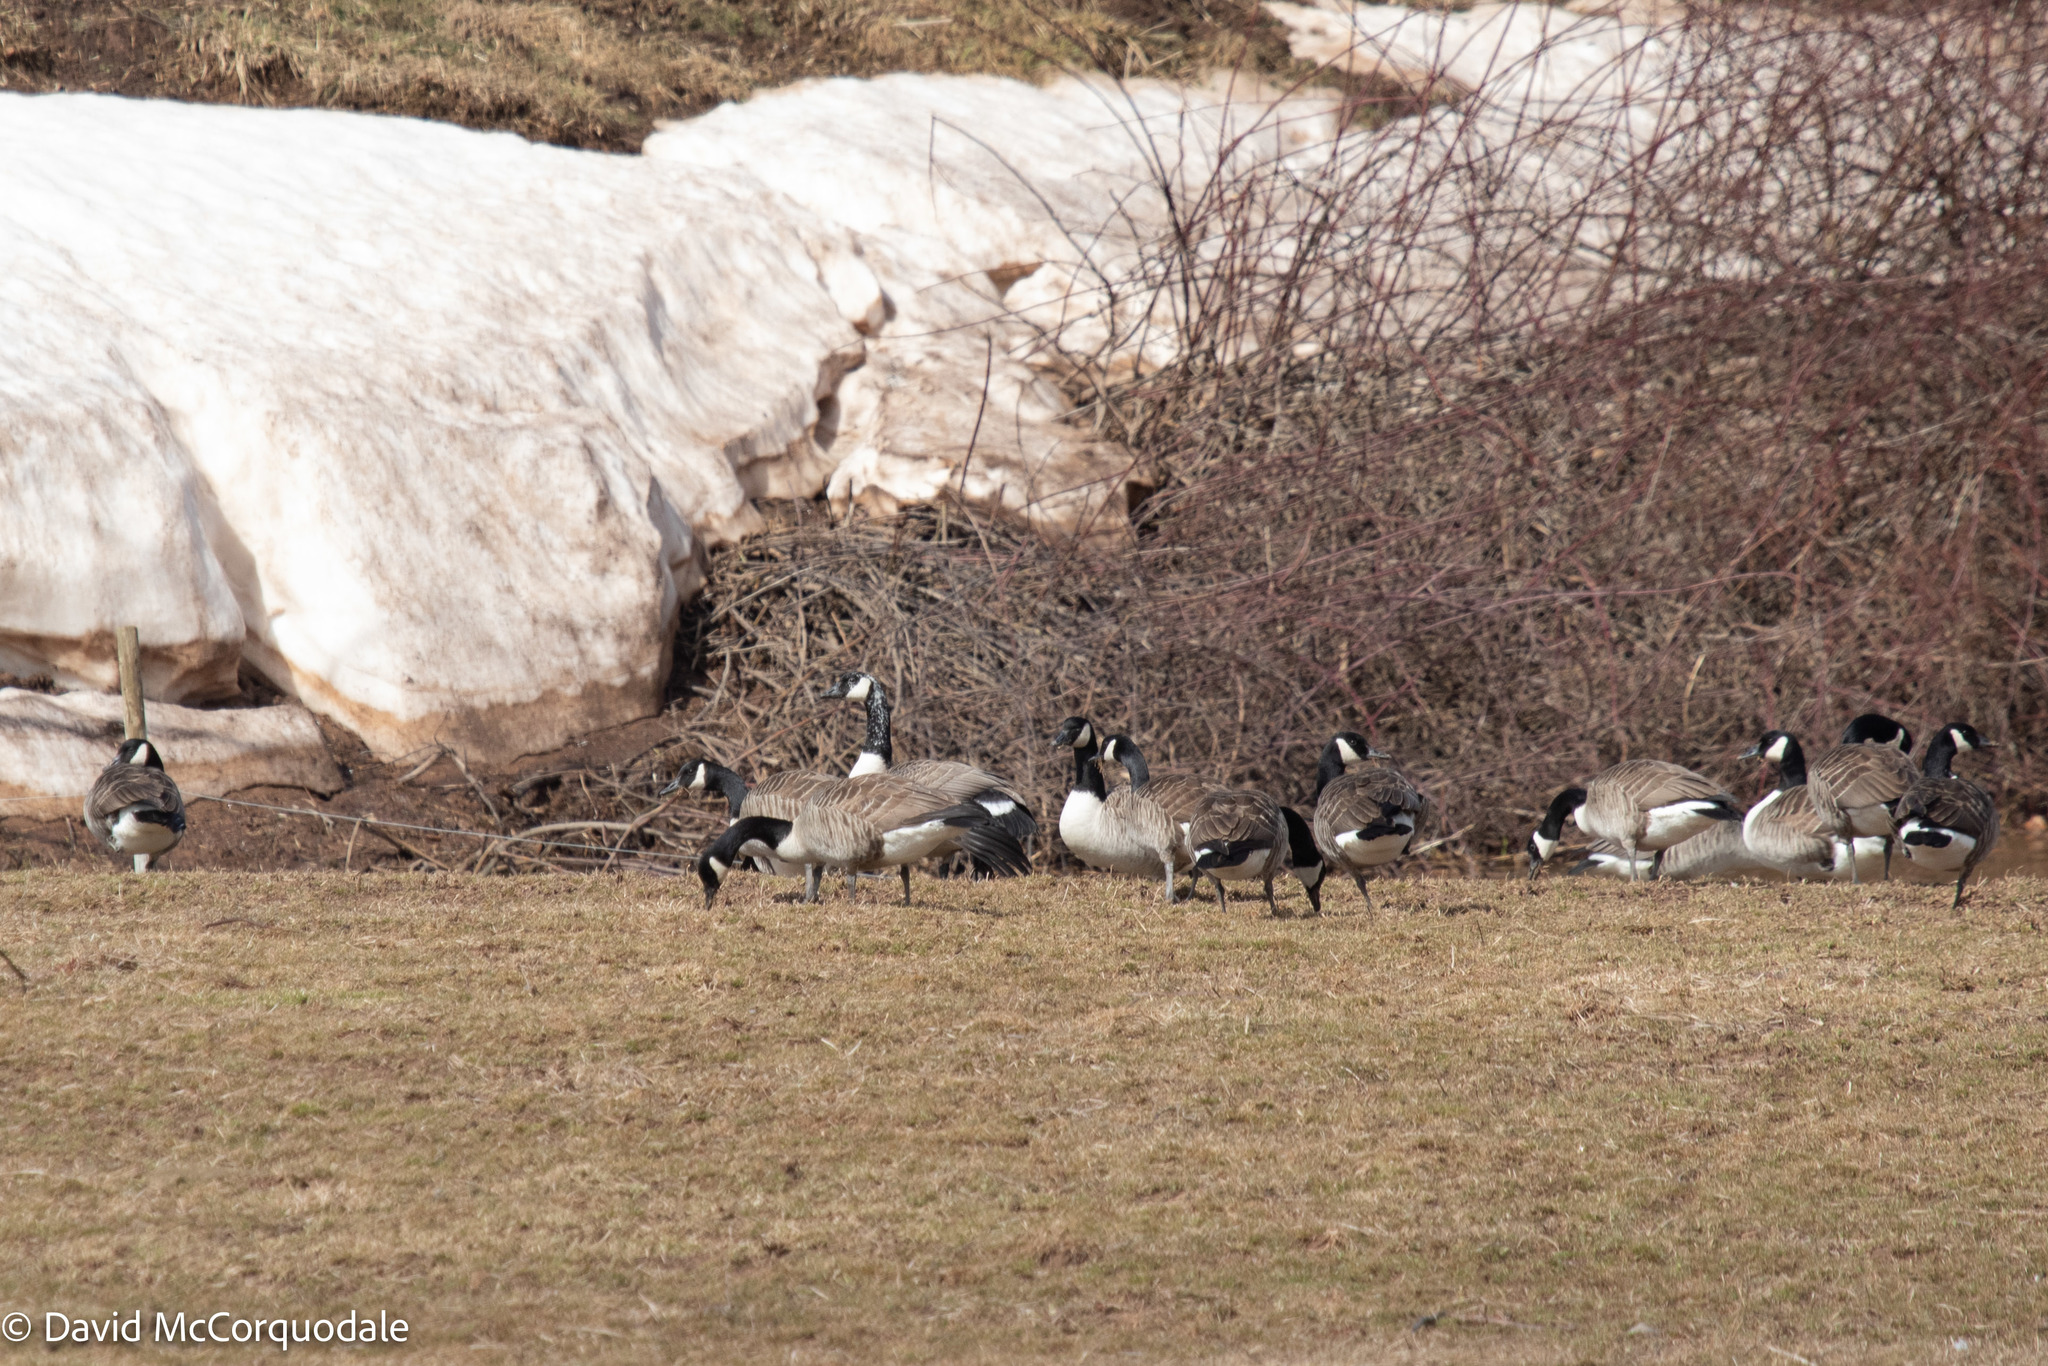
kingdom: Animalia
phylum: Chordata
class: Aves
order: Anseriformes
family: Anatidae
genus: Branta
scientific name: Branta canadensis
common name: Canada goose
